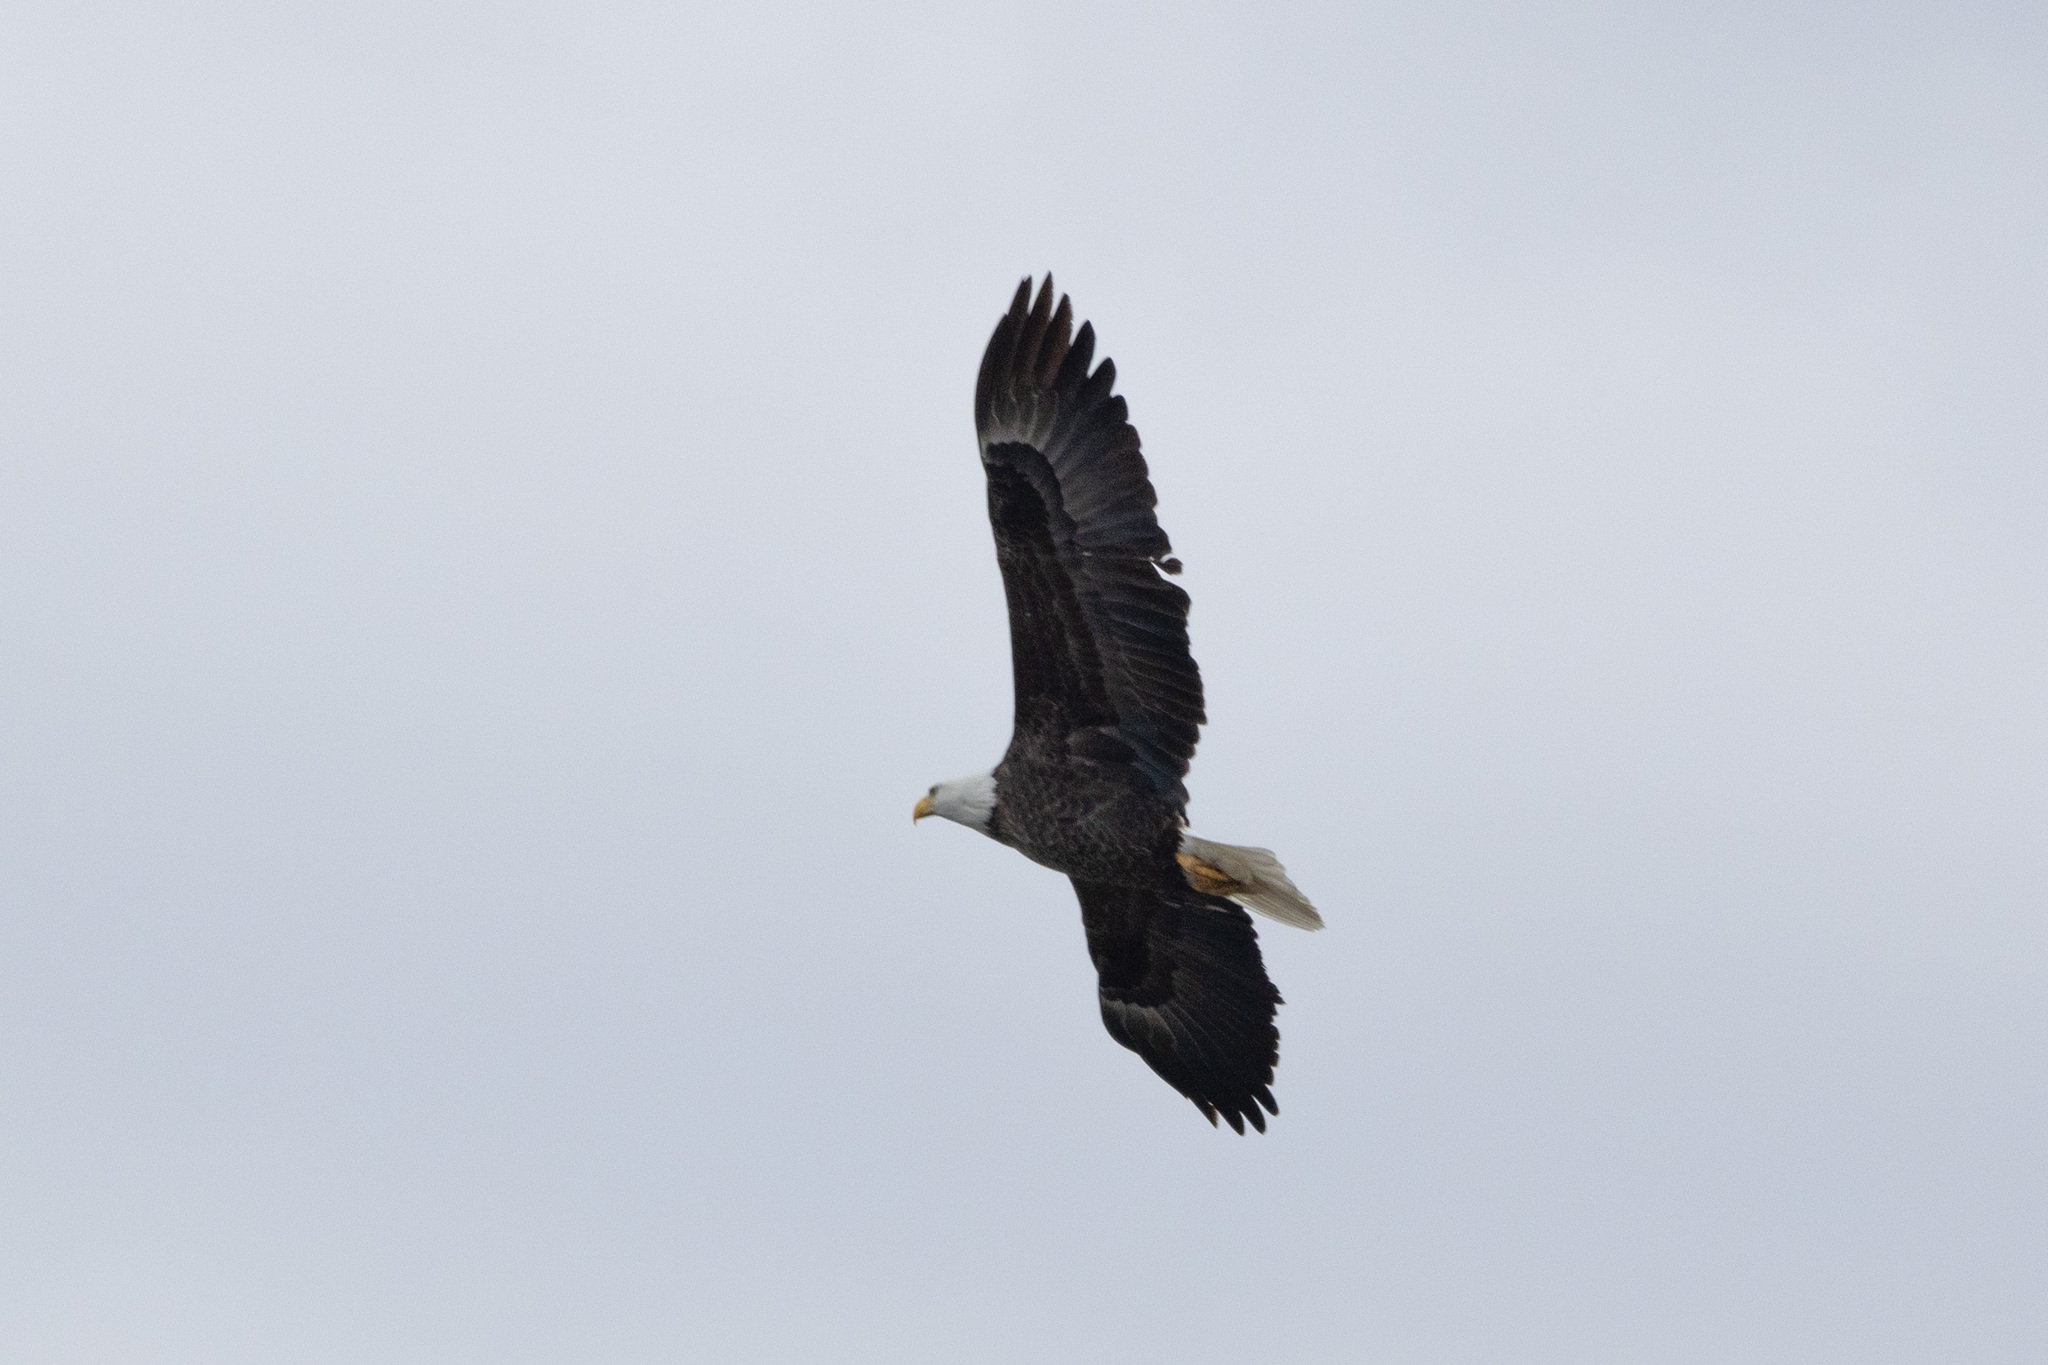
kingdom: Animalia
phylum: Chordata
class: Aves
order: Accipitriformes
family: Accipitridae
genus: Haliaeetus
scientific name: Haliaeetus leucocephalus
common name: Bald eagle
